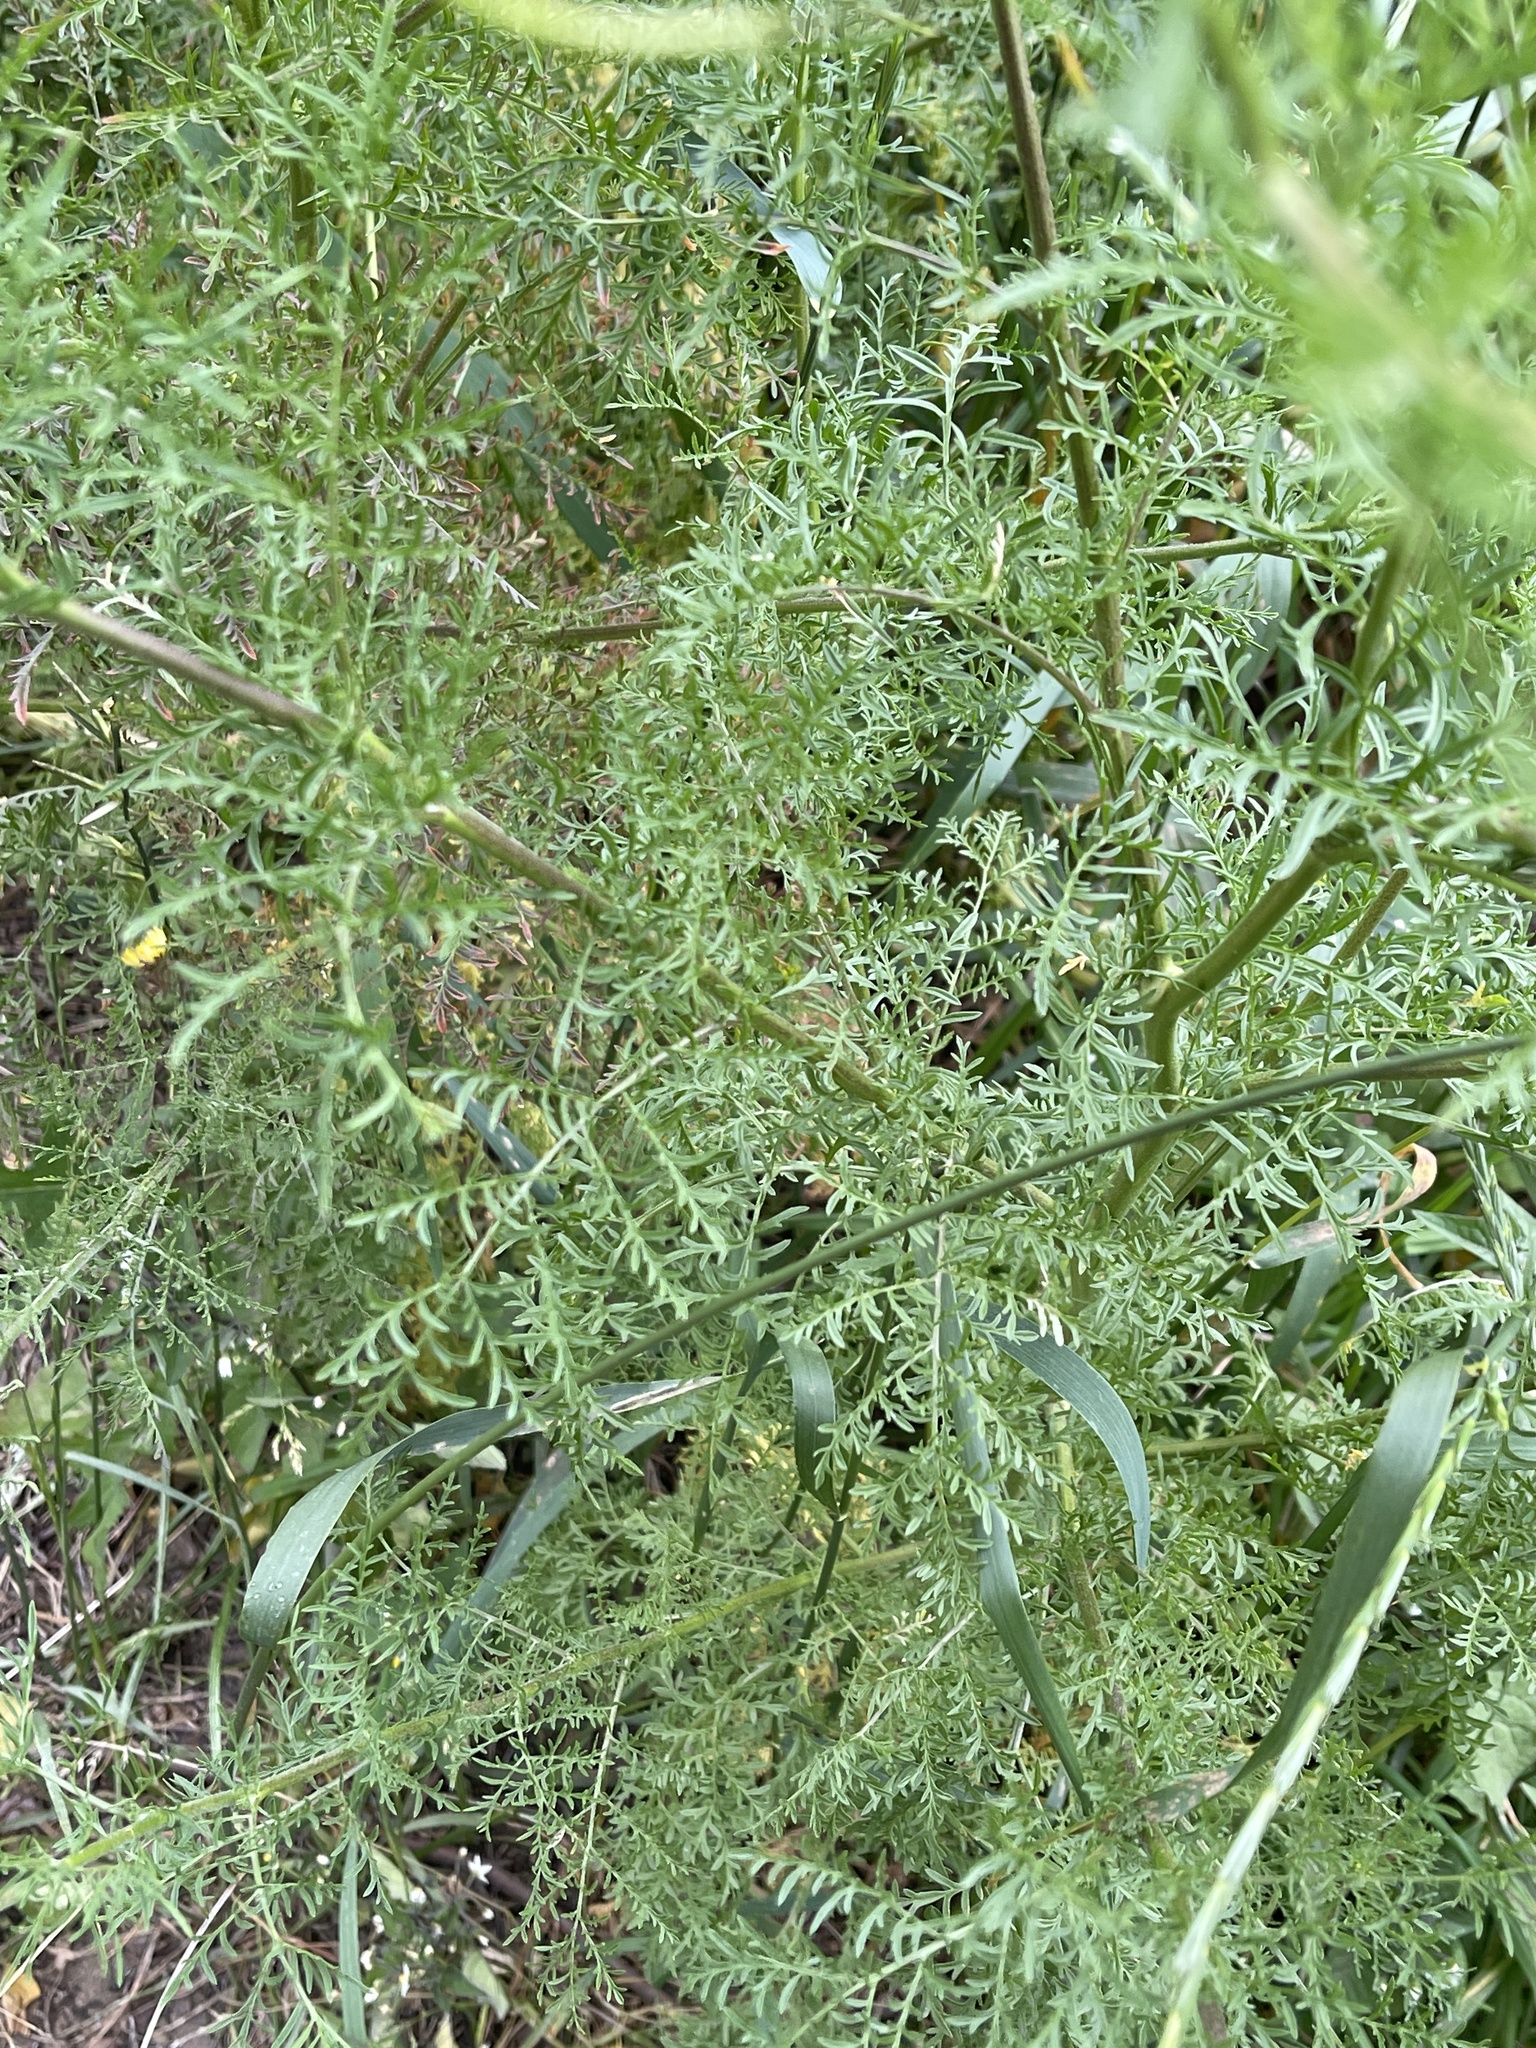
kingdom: Plantae
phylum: Tracheophyta
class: Magnoliopsida
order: Brassicales
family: Brassicaceae
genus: Descurainia
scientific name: Descurainia sophia
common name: Flixweed
